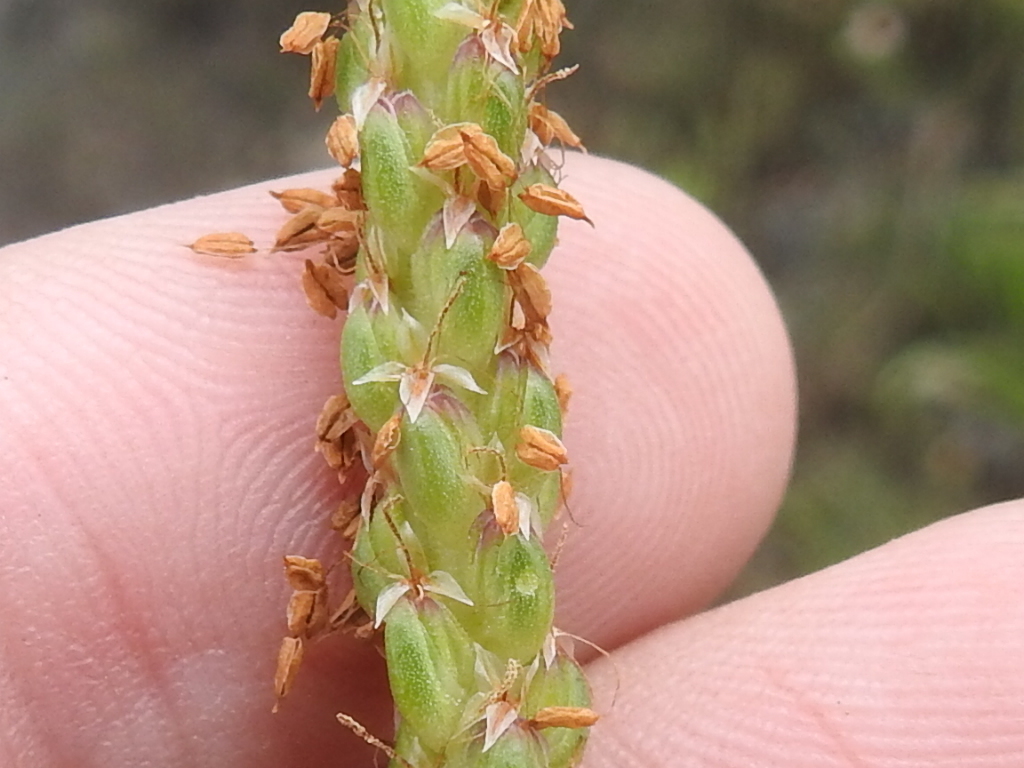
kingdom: Plantae
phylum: Tracheophyta
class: Magnoliopsida
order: Lamiales
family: Plantaginaceae
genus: Plantago
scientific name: Plantago maritima
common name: Sea plantain
